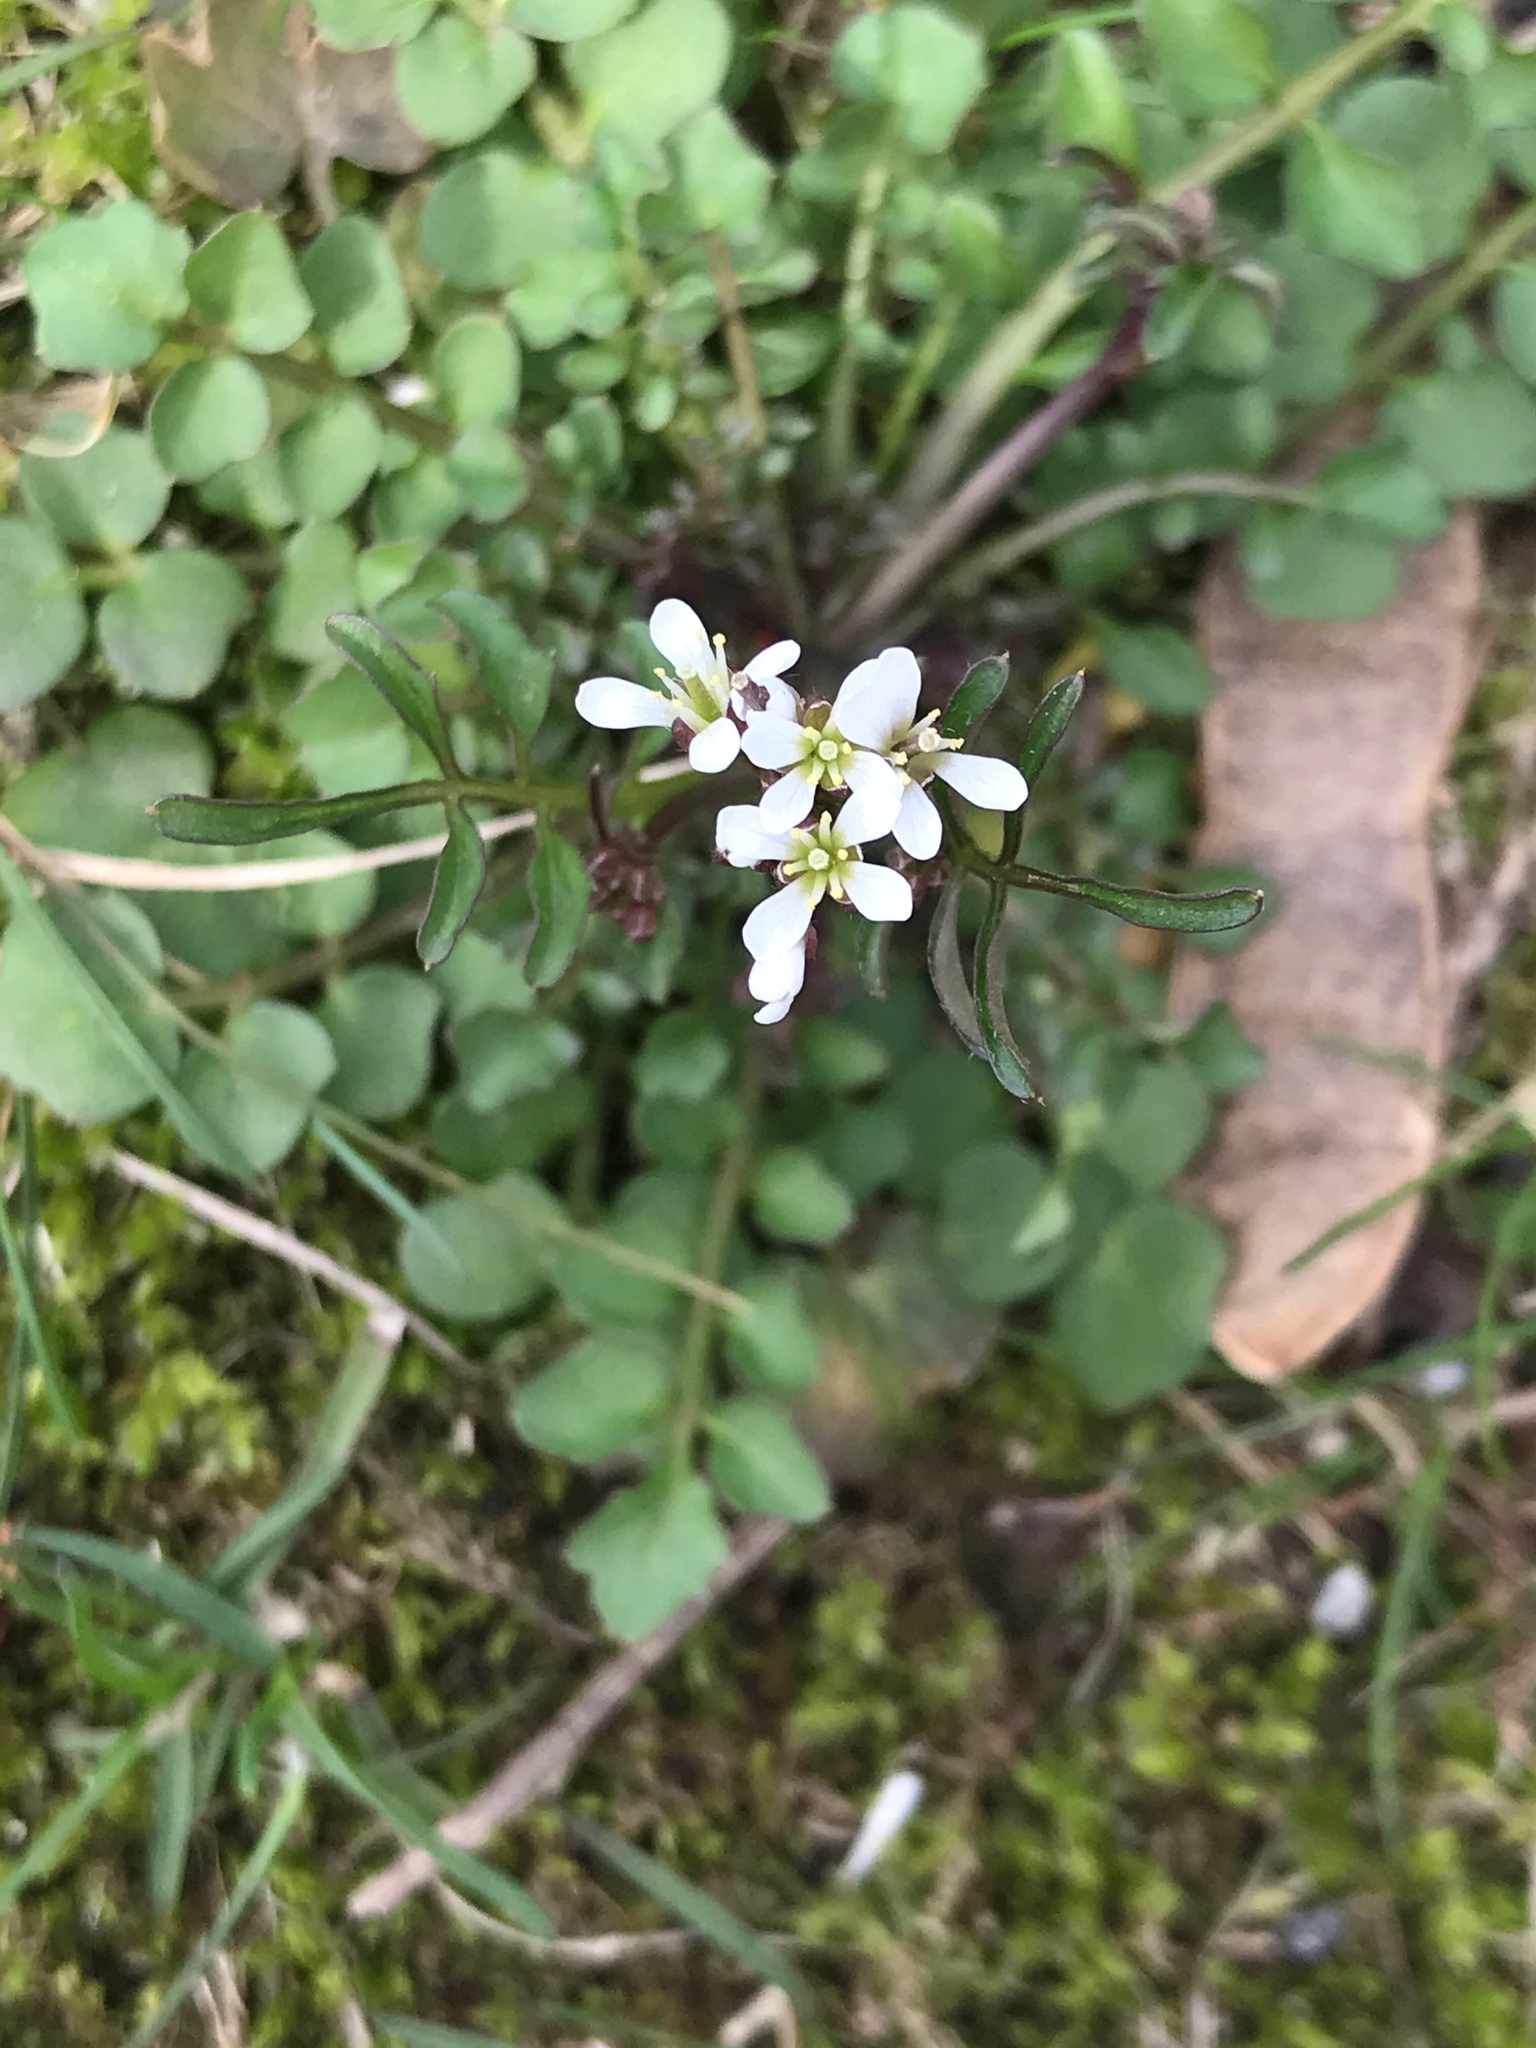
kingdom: Plantae
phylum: Tracheophyta
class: Magnoliopsida
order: Brassicales
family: Brassicaceae
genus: Cardamine
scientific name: Cardamine hirsuta
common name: Hairy bittercress
